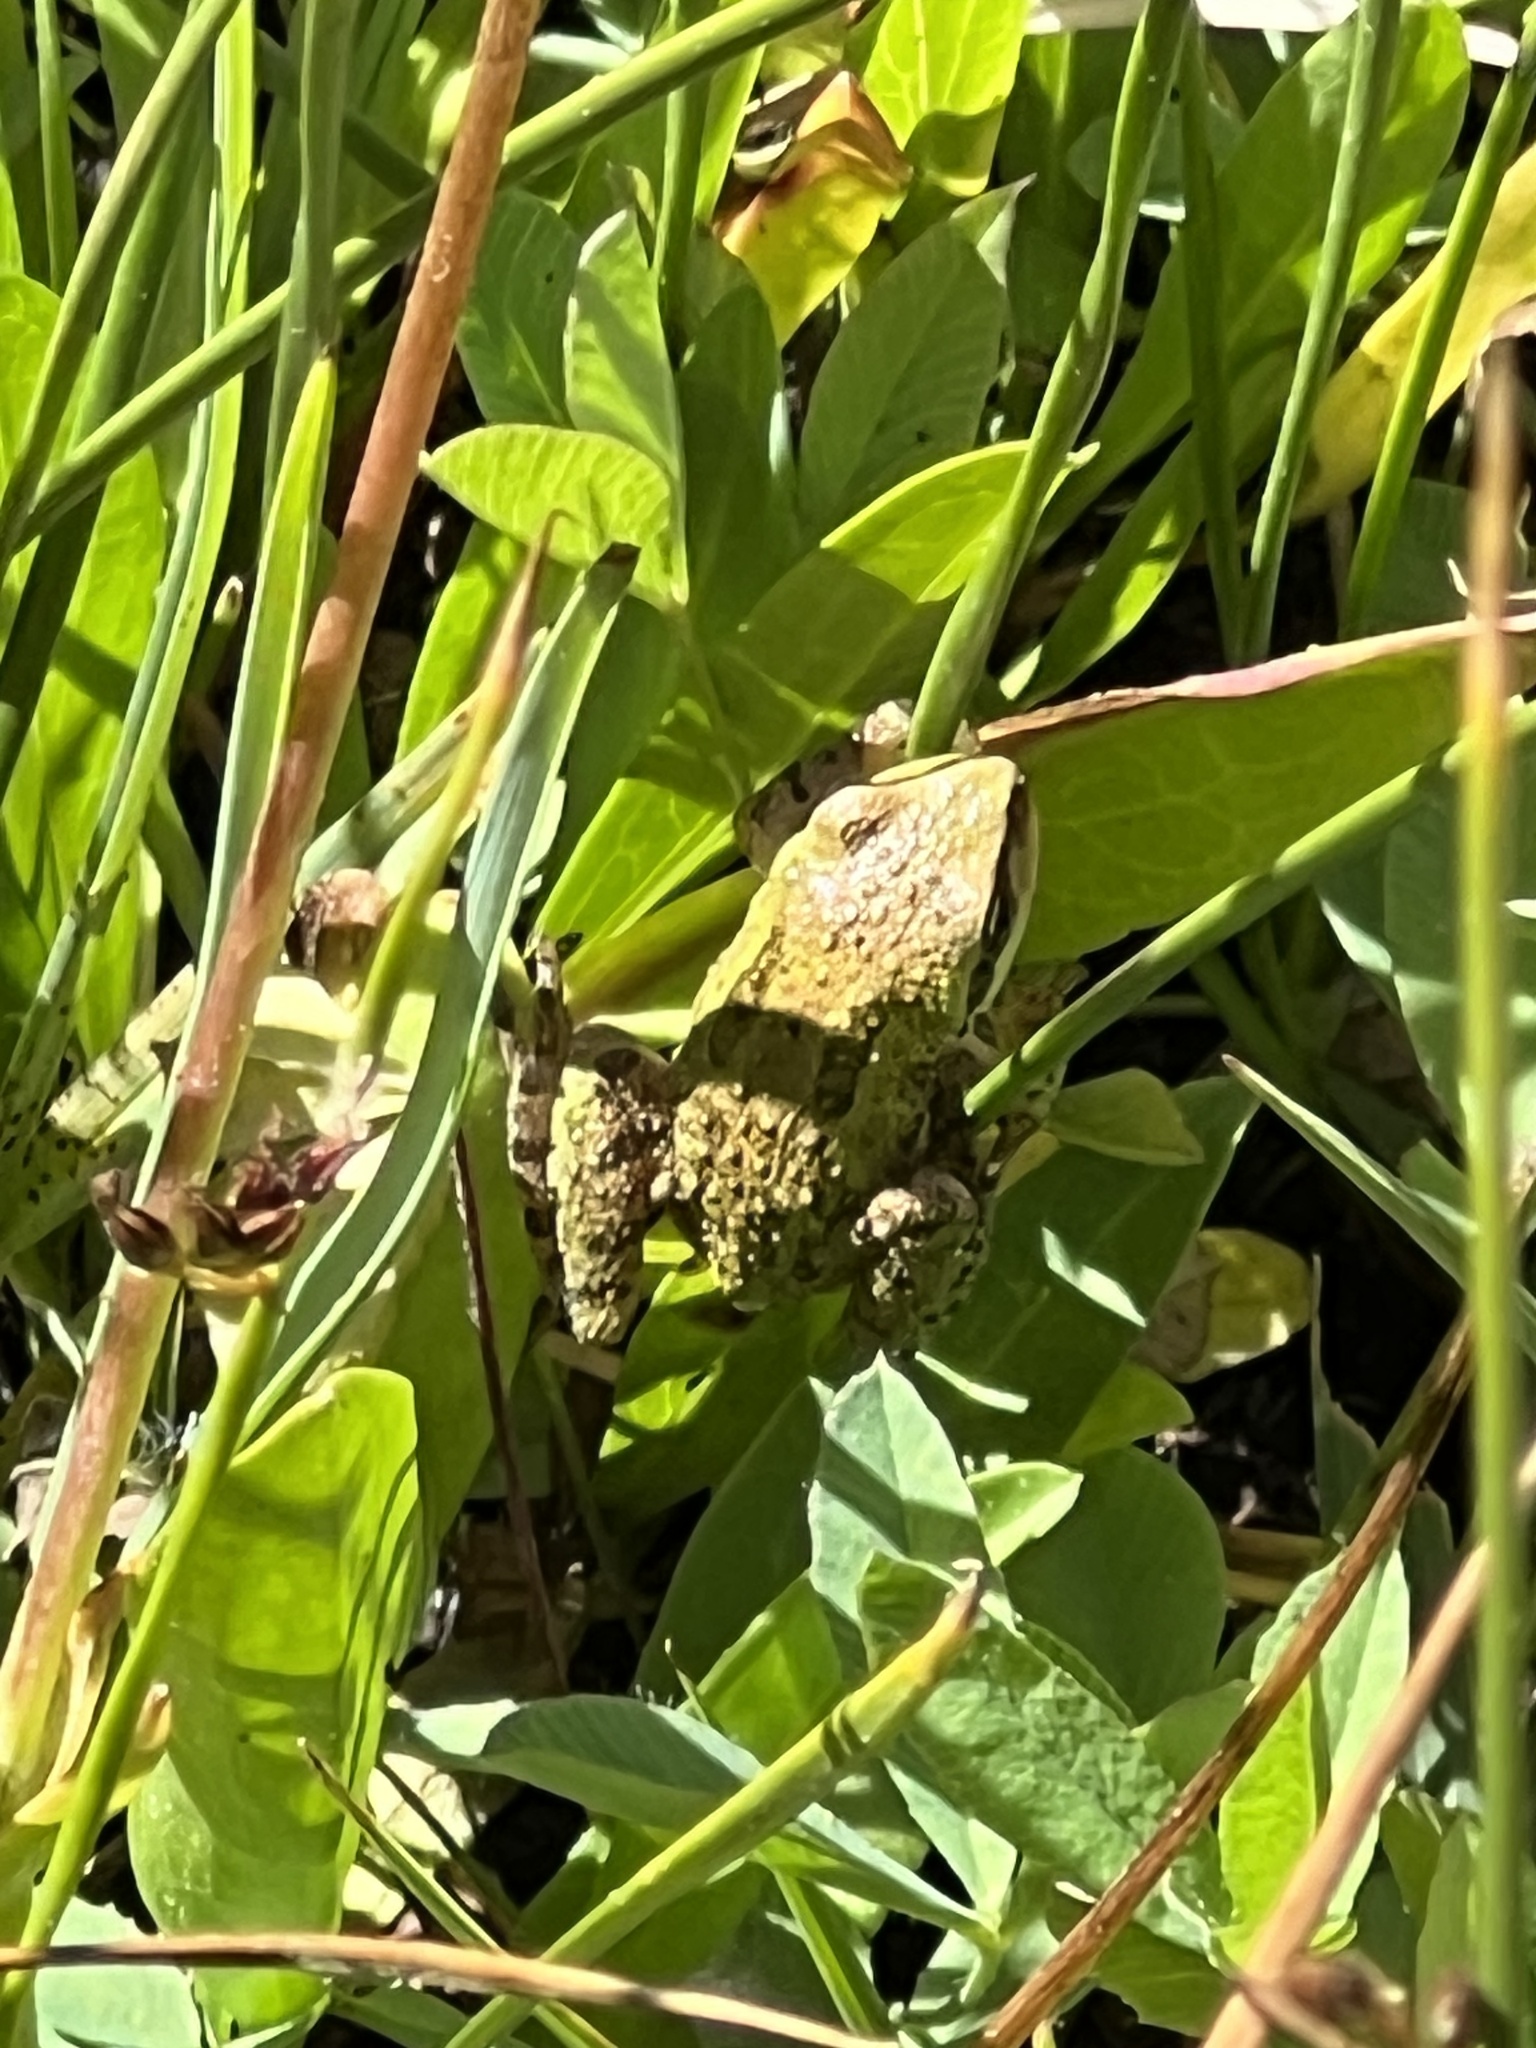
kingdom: Animalia
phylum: Chordata
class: Amphibia
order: Anura
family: Hylidae
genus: Pseudacris
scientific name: Pseudacris regilla
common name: Pacific chorus frog
